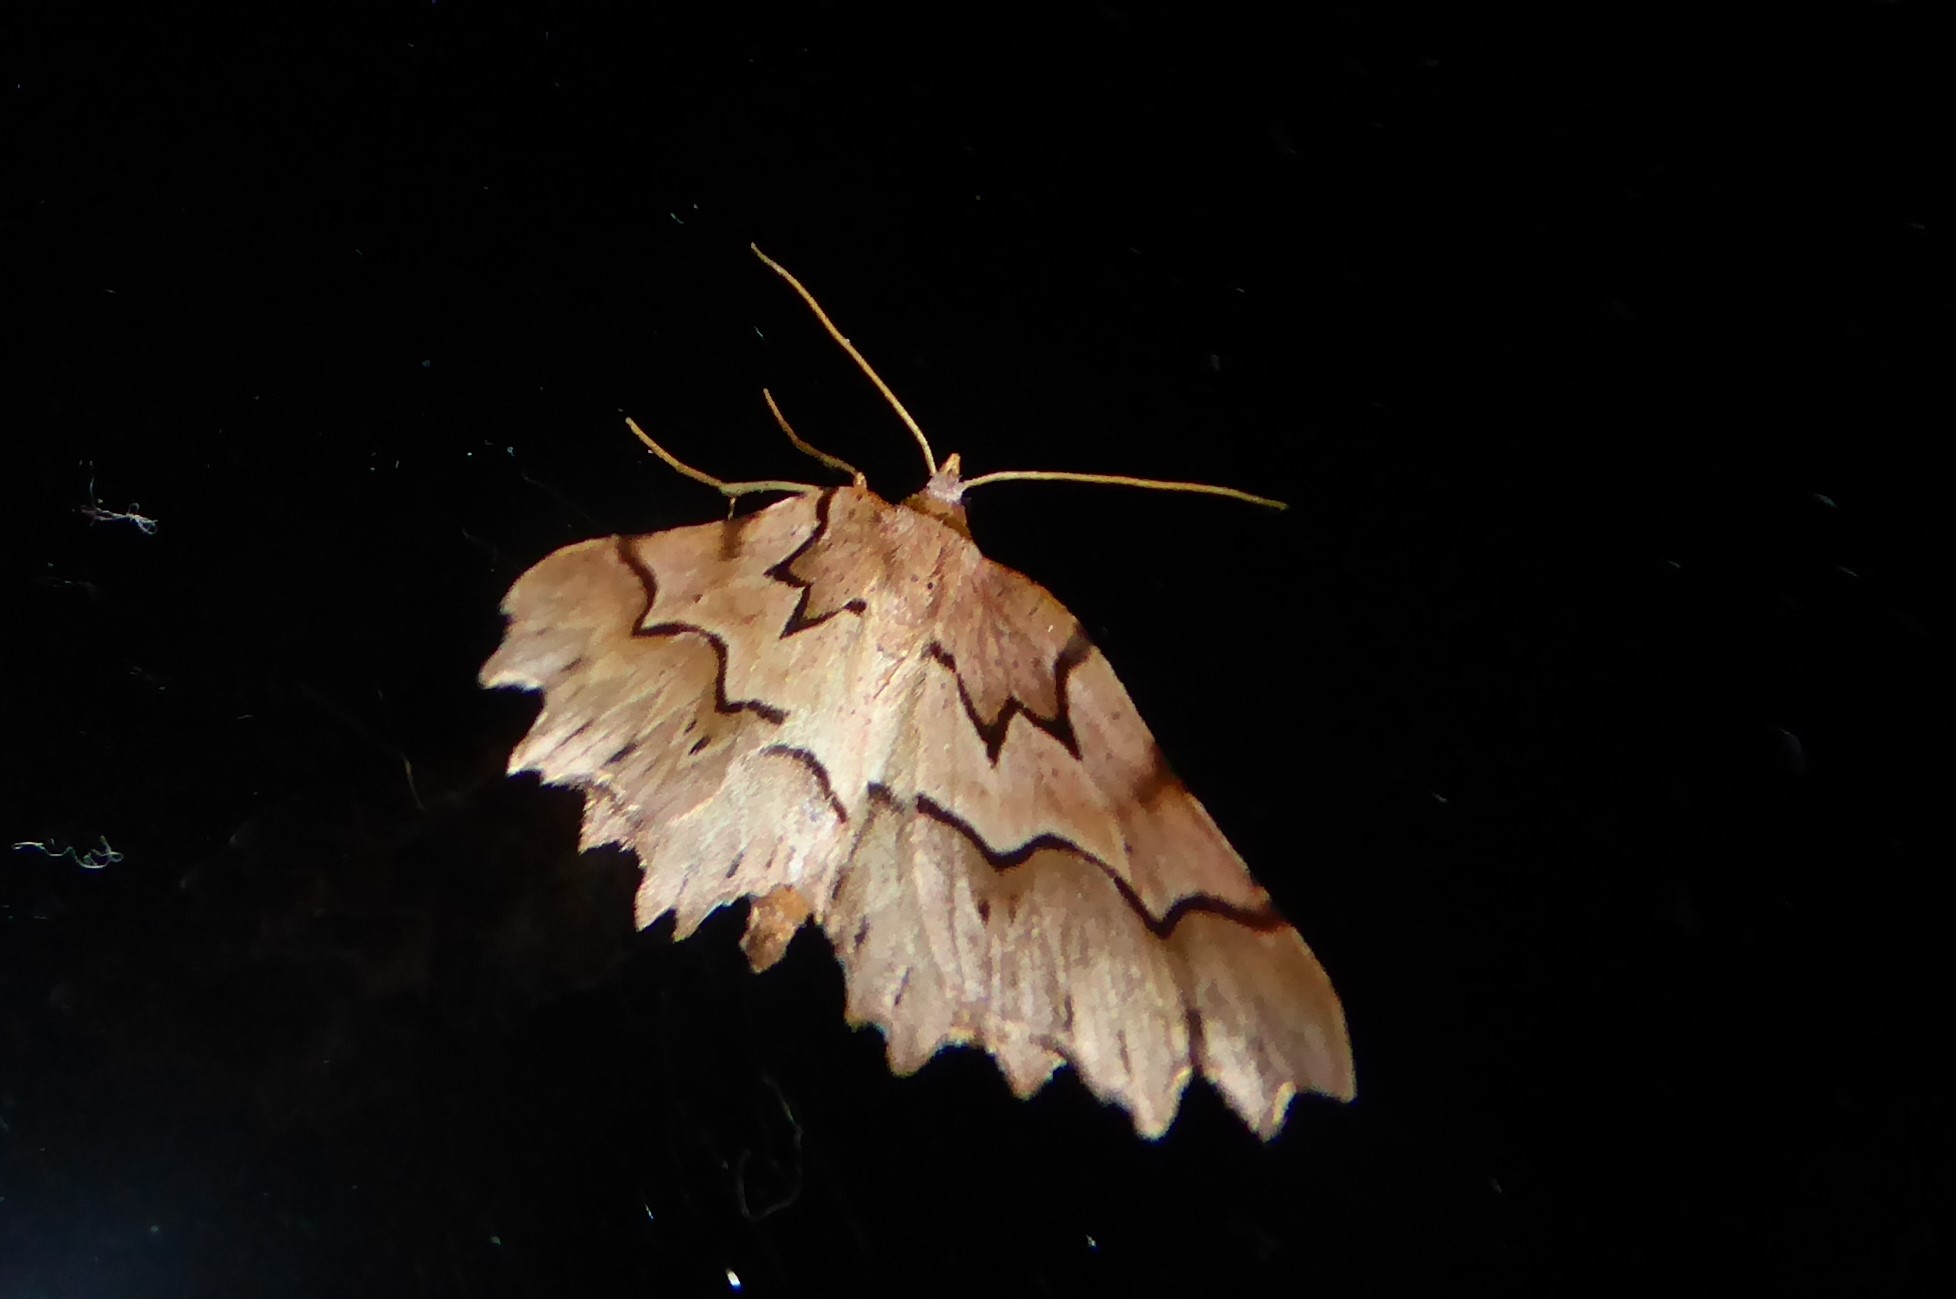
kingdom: Animalia
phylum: Arthropoda
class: Insecta
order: Lepidoptera
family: Geometridae
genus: Ischalis
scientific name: Ischalis fortinata
